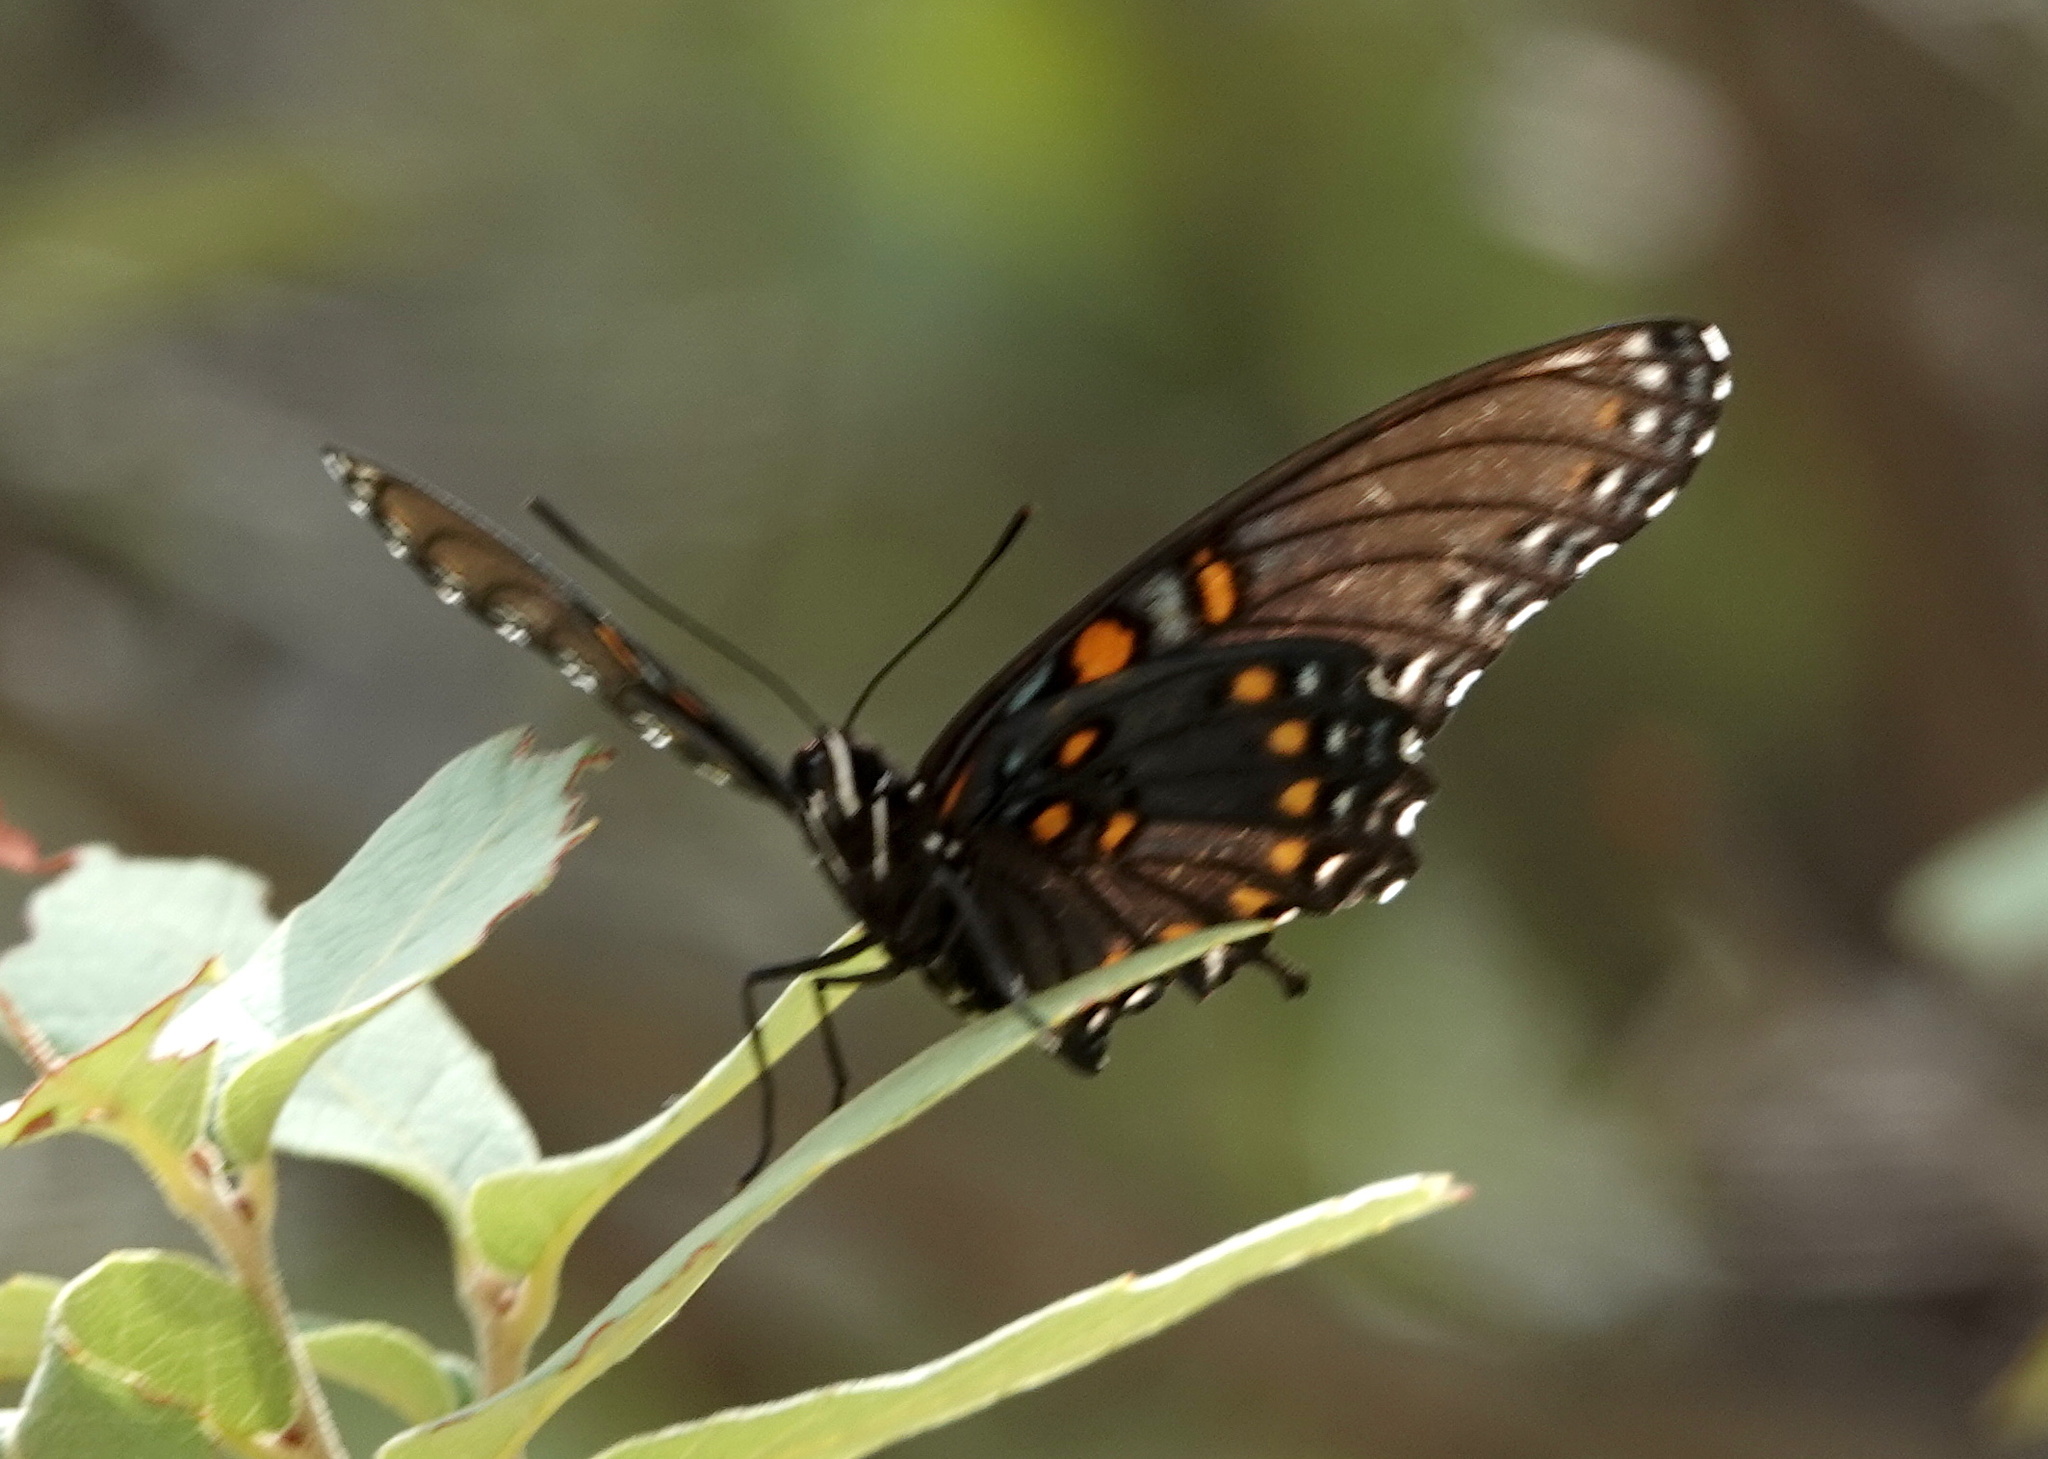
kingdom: Animalia
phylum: Arthropoda
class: Insecta
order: Lepidoptera
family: Nymphalidae
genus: Limenitis
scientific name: Limenitis arthemis
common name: Red-spotted admiral
